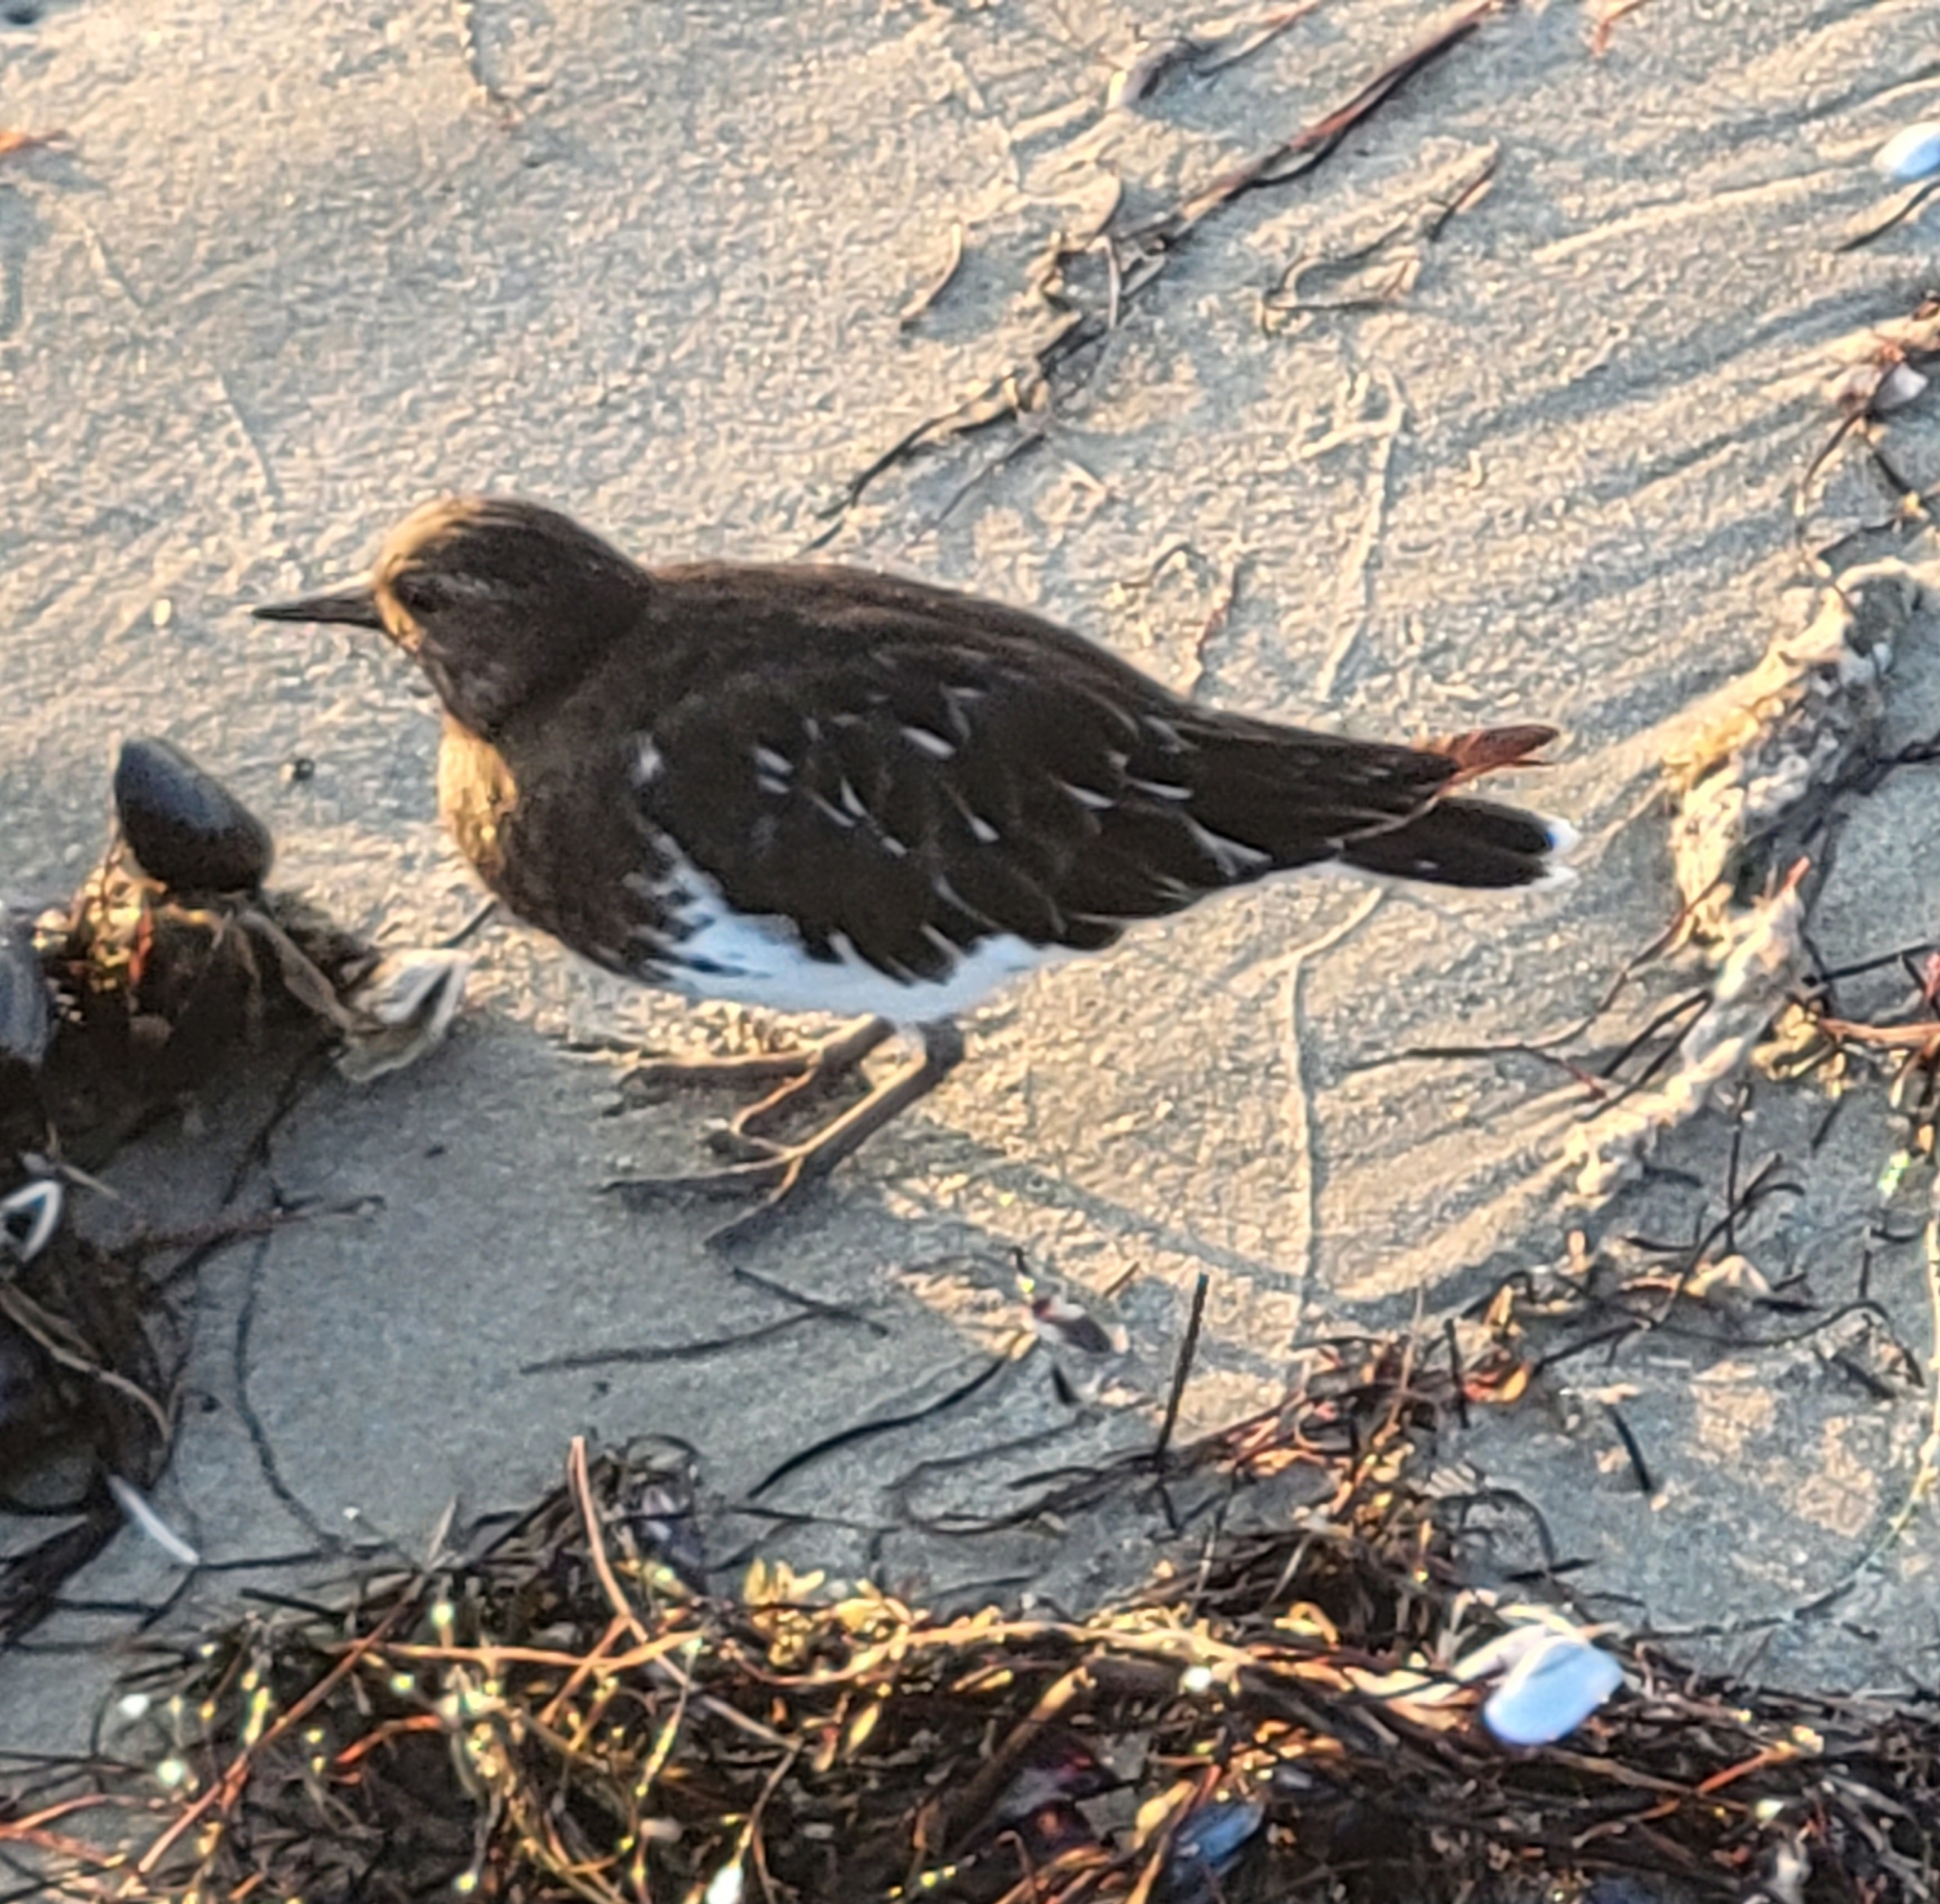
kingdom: Animalia
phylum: Chordata
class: Aves
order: Charadriiformes
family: Scolopacidae
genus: Arenaria
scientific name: Arenaria melanocephala
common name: Black turnstone
